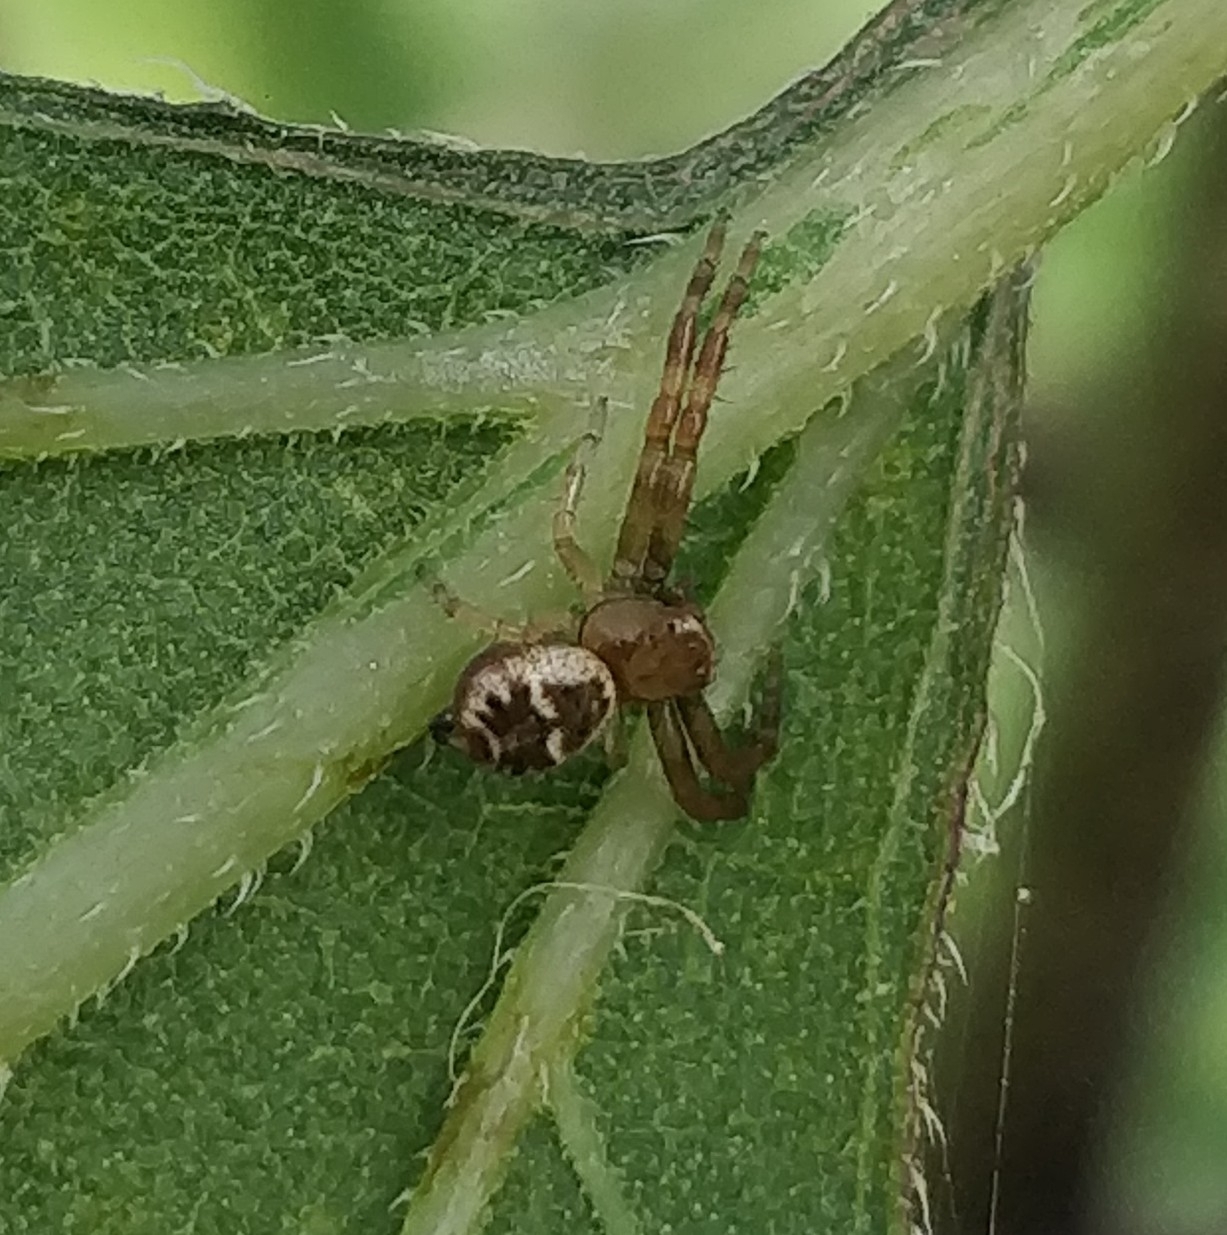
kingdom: Animalia
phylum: Arthropoda
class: Arachnida
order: Araneae
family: Thomisidae
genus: Synema
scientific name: Synema globosum
